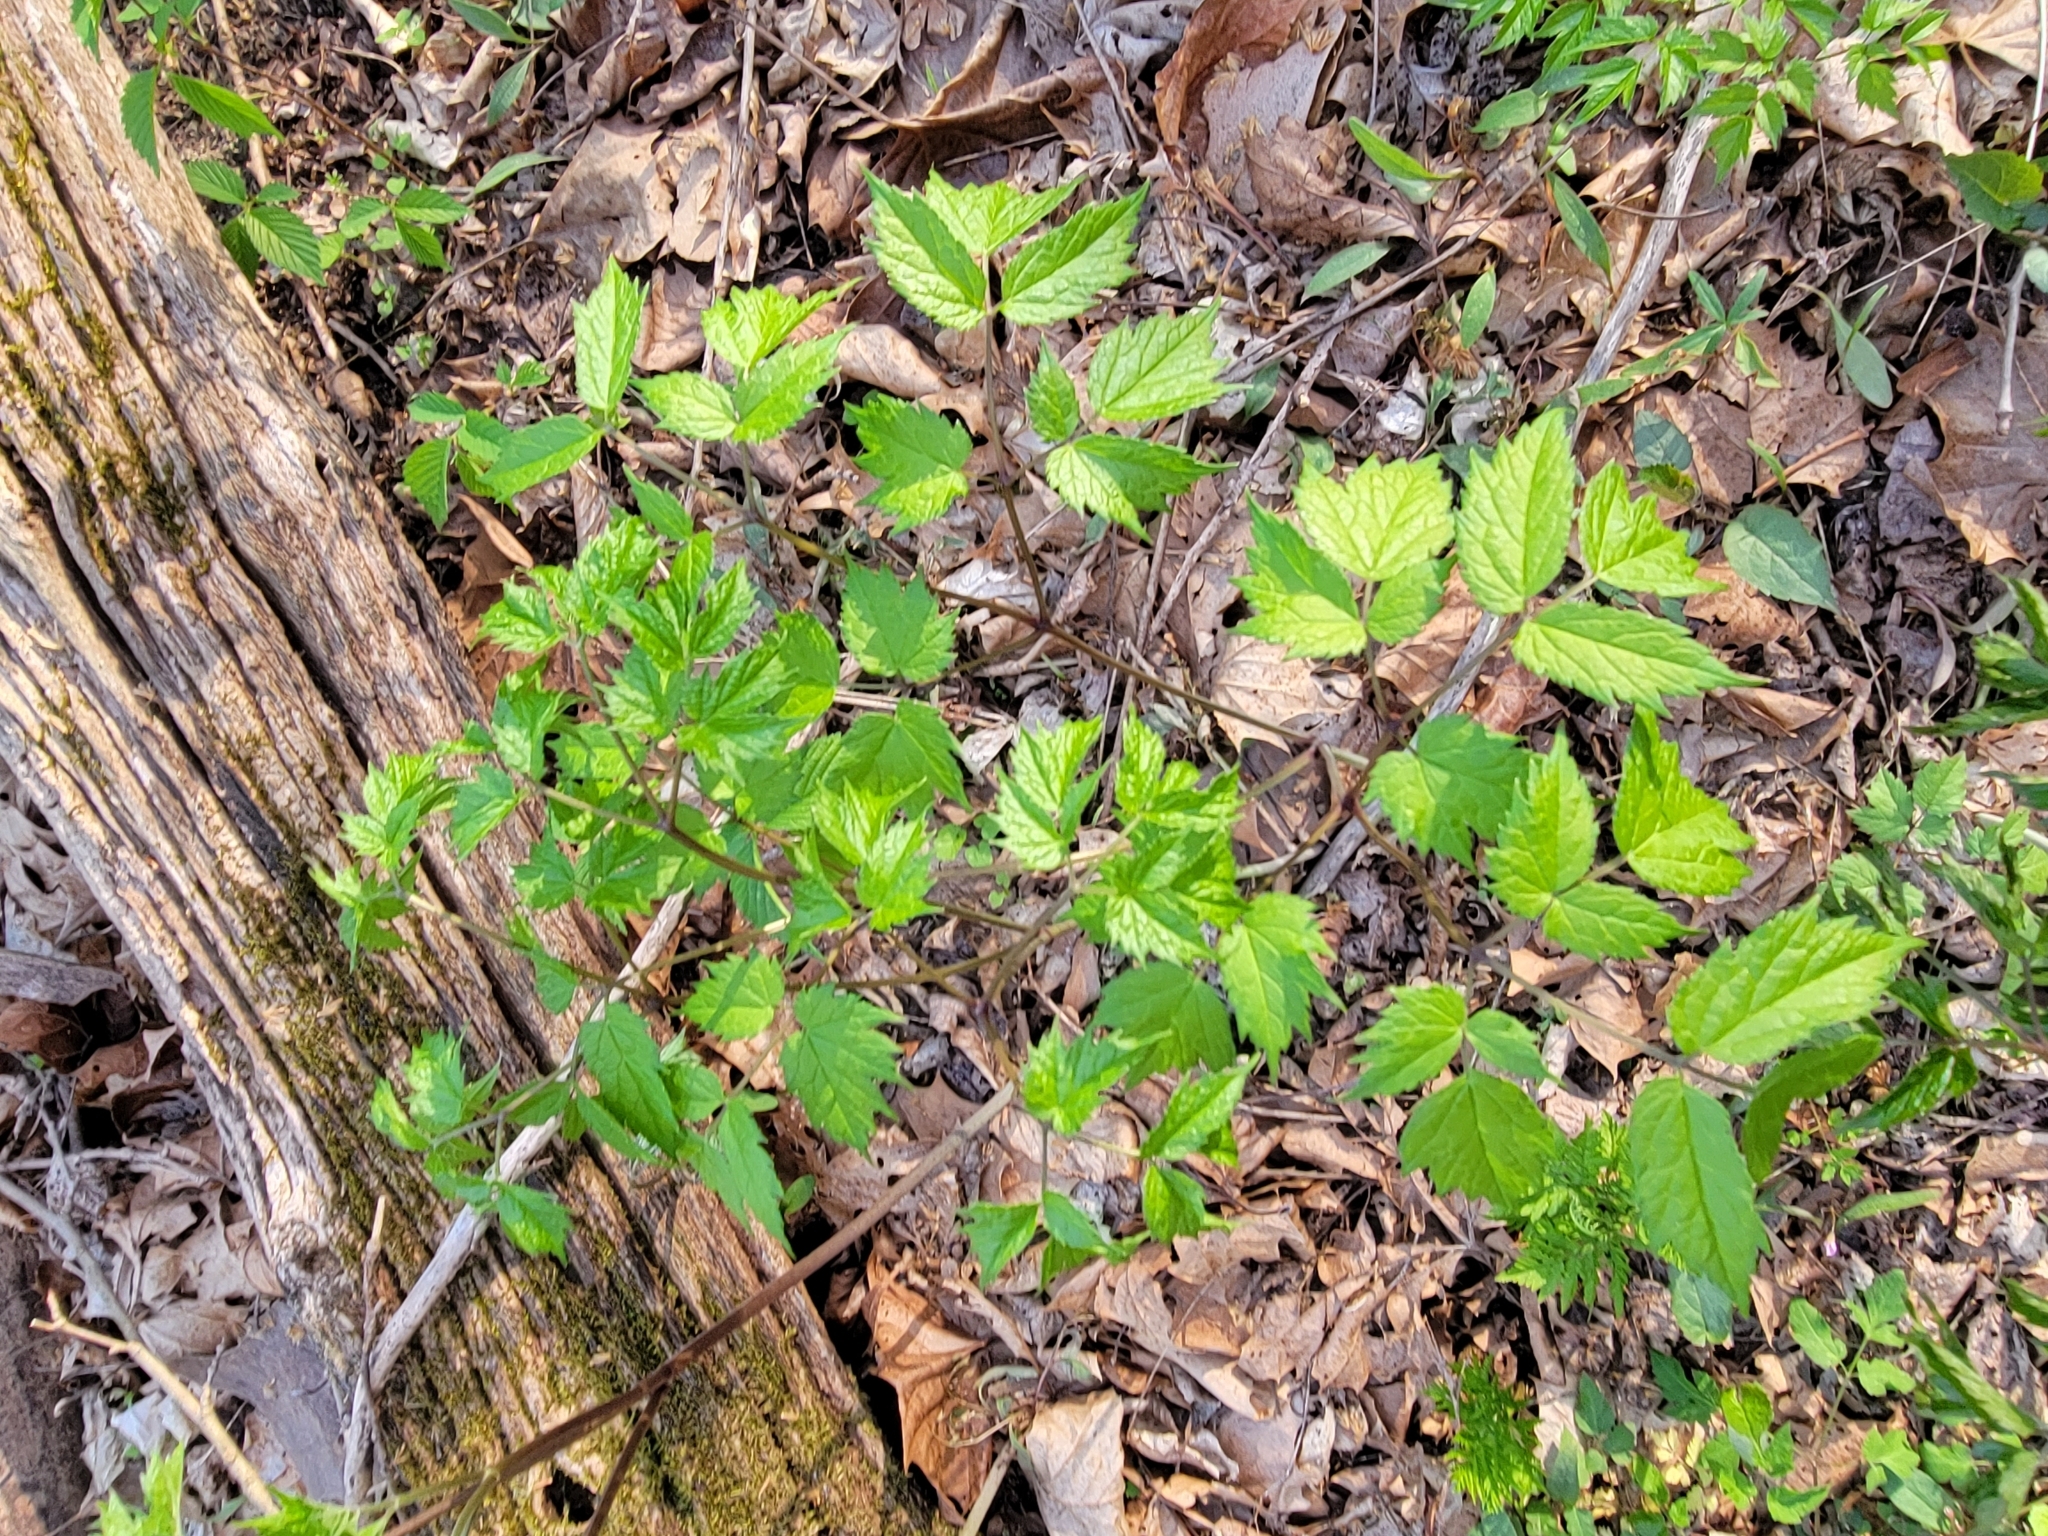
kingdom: Plantae
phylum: Tracheophyta
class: Magnoliopsida
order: Ranunculales
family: Ranunculaceae
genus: Actaea
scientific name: Actaea racemosa
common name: Black cohosh
